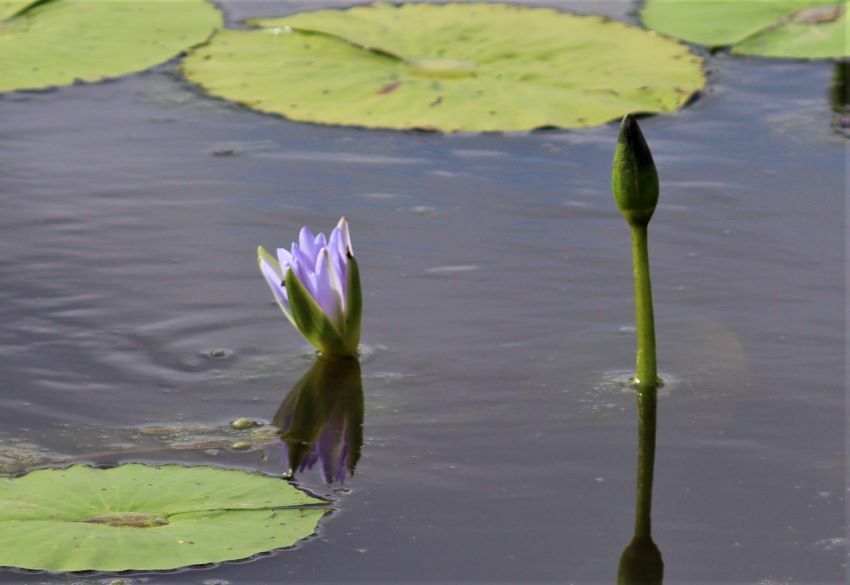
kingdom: Plantae
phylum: Tracheophyta
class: Magnoliopsida
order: Nymphaeales
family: Nymphaeaceae
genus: Nymphaea
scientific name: Nymphaea nouchali
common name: Blue lotus
